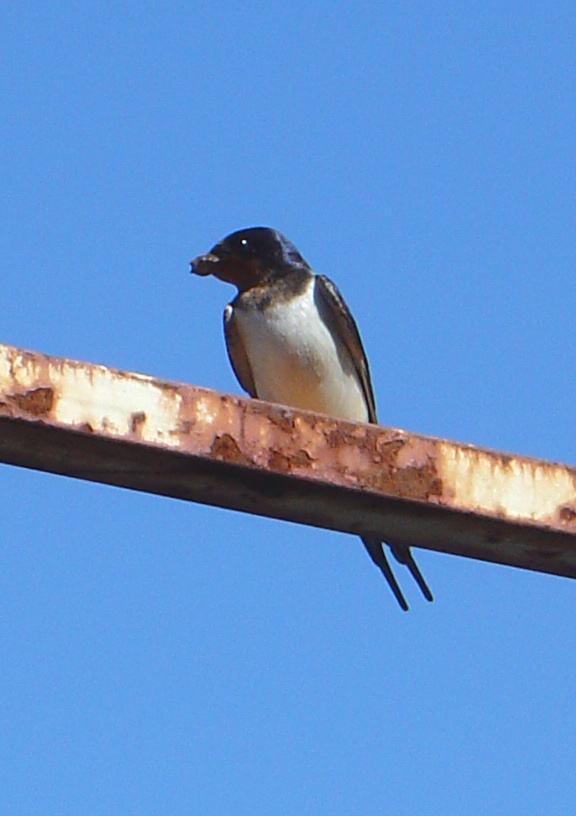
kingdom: Animalia
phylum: Chordata
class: Aves
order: Passeriformes
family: Hirundinidae
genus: Hirundo
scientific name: Hirundo rustica
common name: Barn swallow
